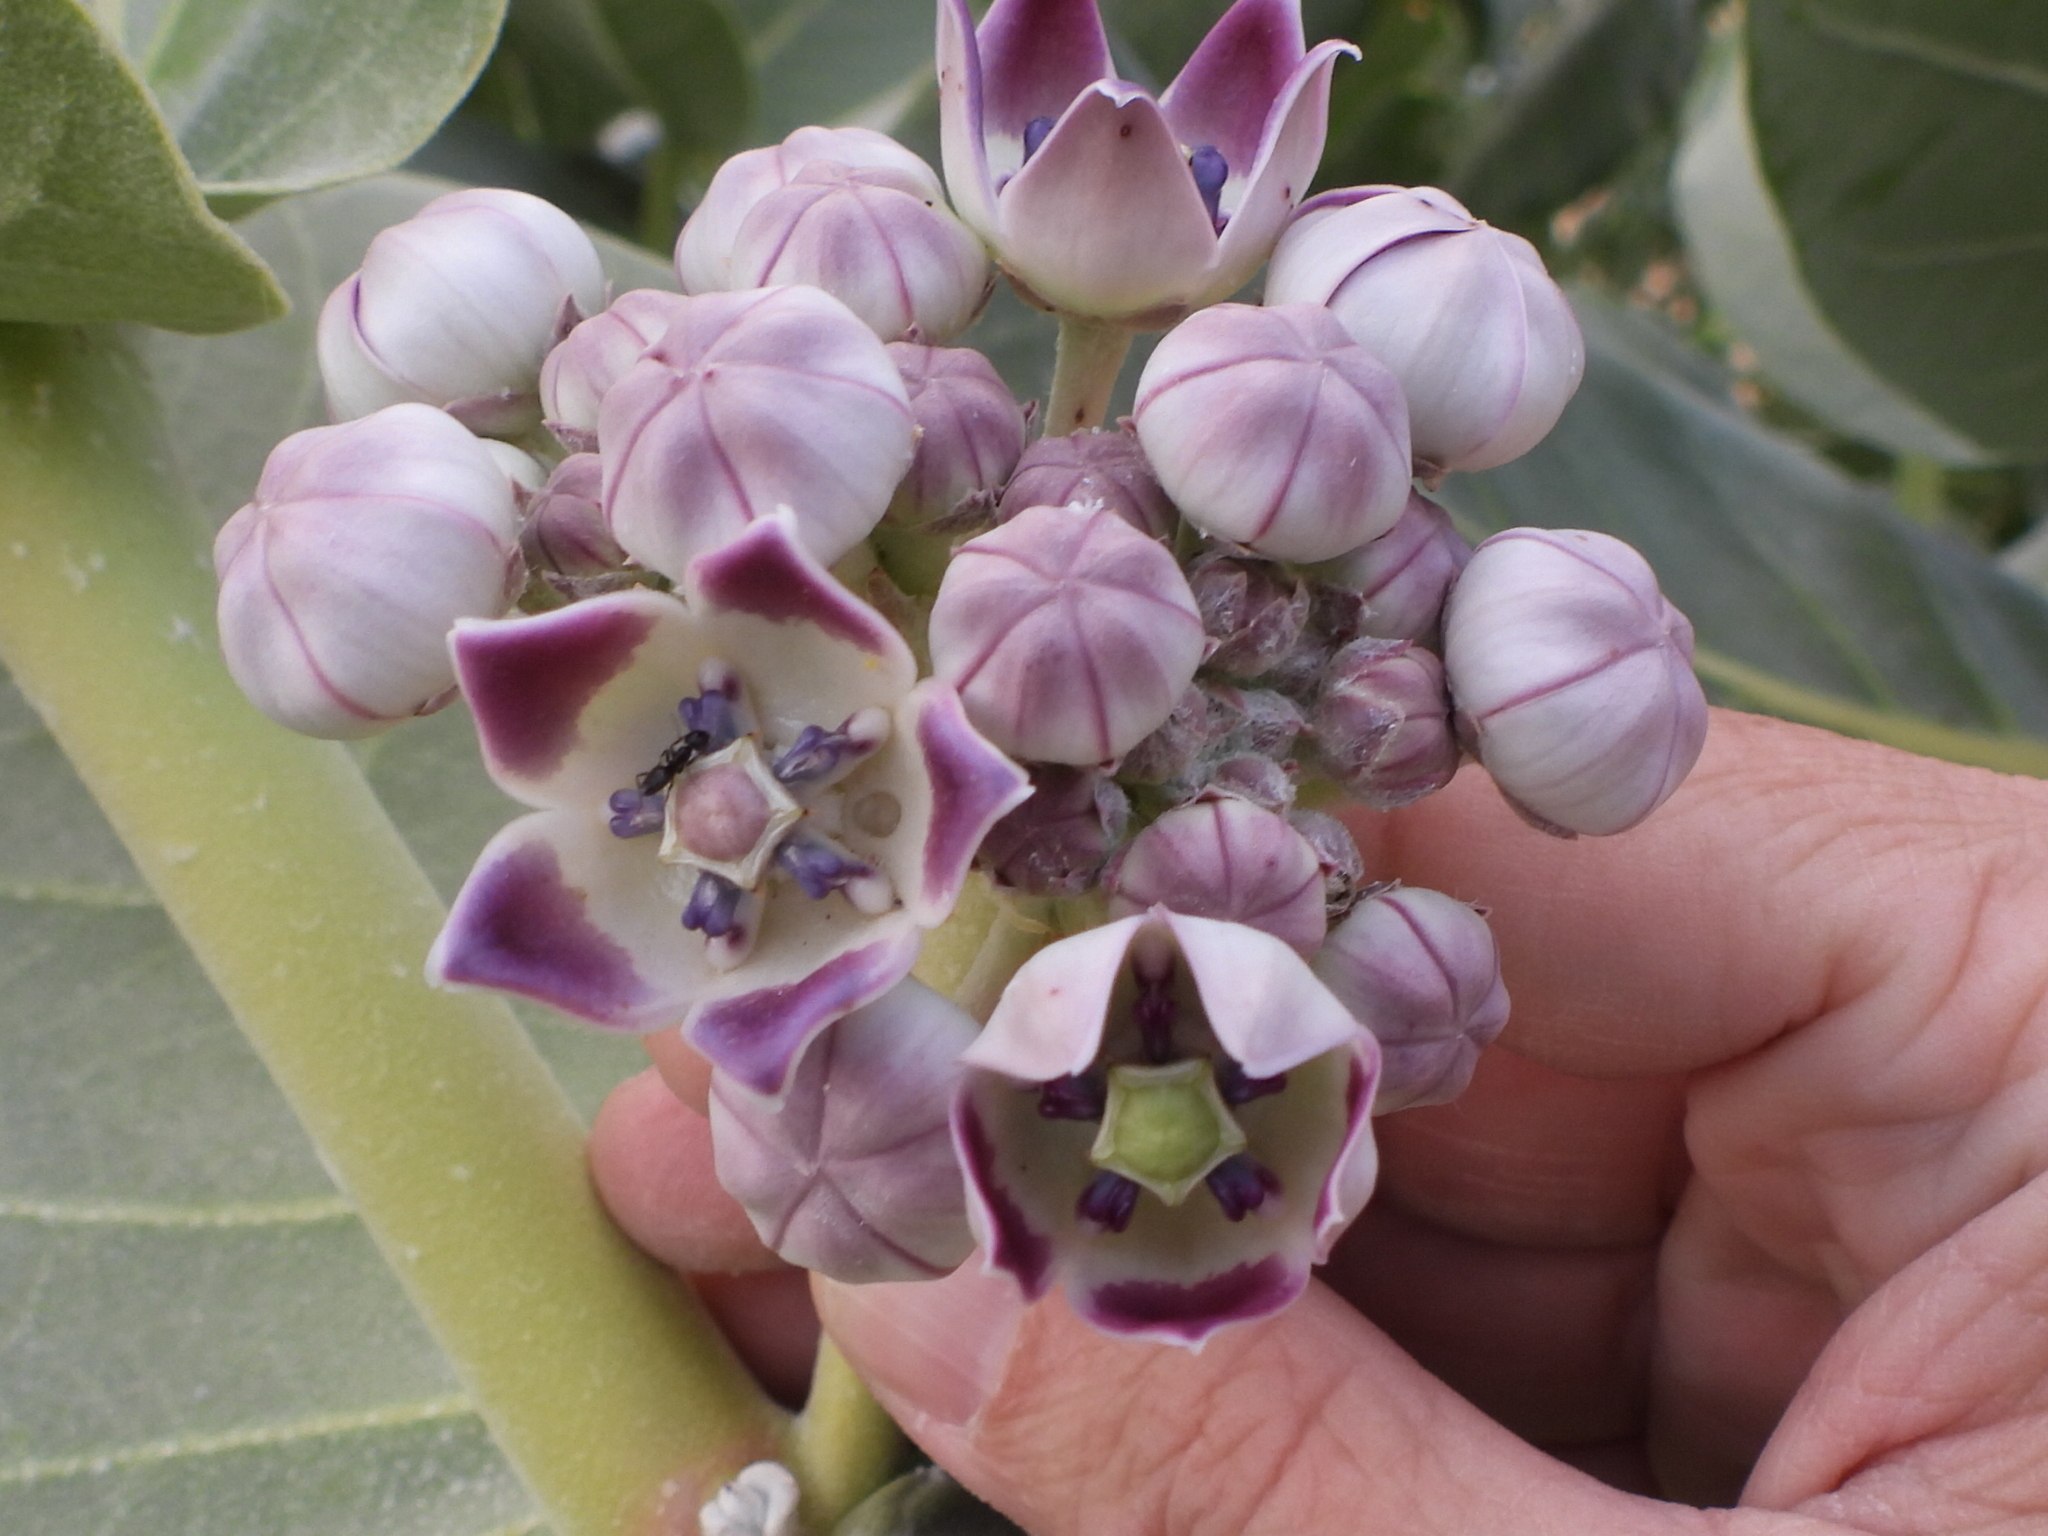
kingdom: Plantae
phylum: Tracheophyta
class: Magnoliopsida
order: Gentianales
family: Apocynaceae
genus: Calotropis
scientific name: Calotropis procera
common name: Roostertree
